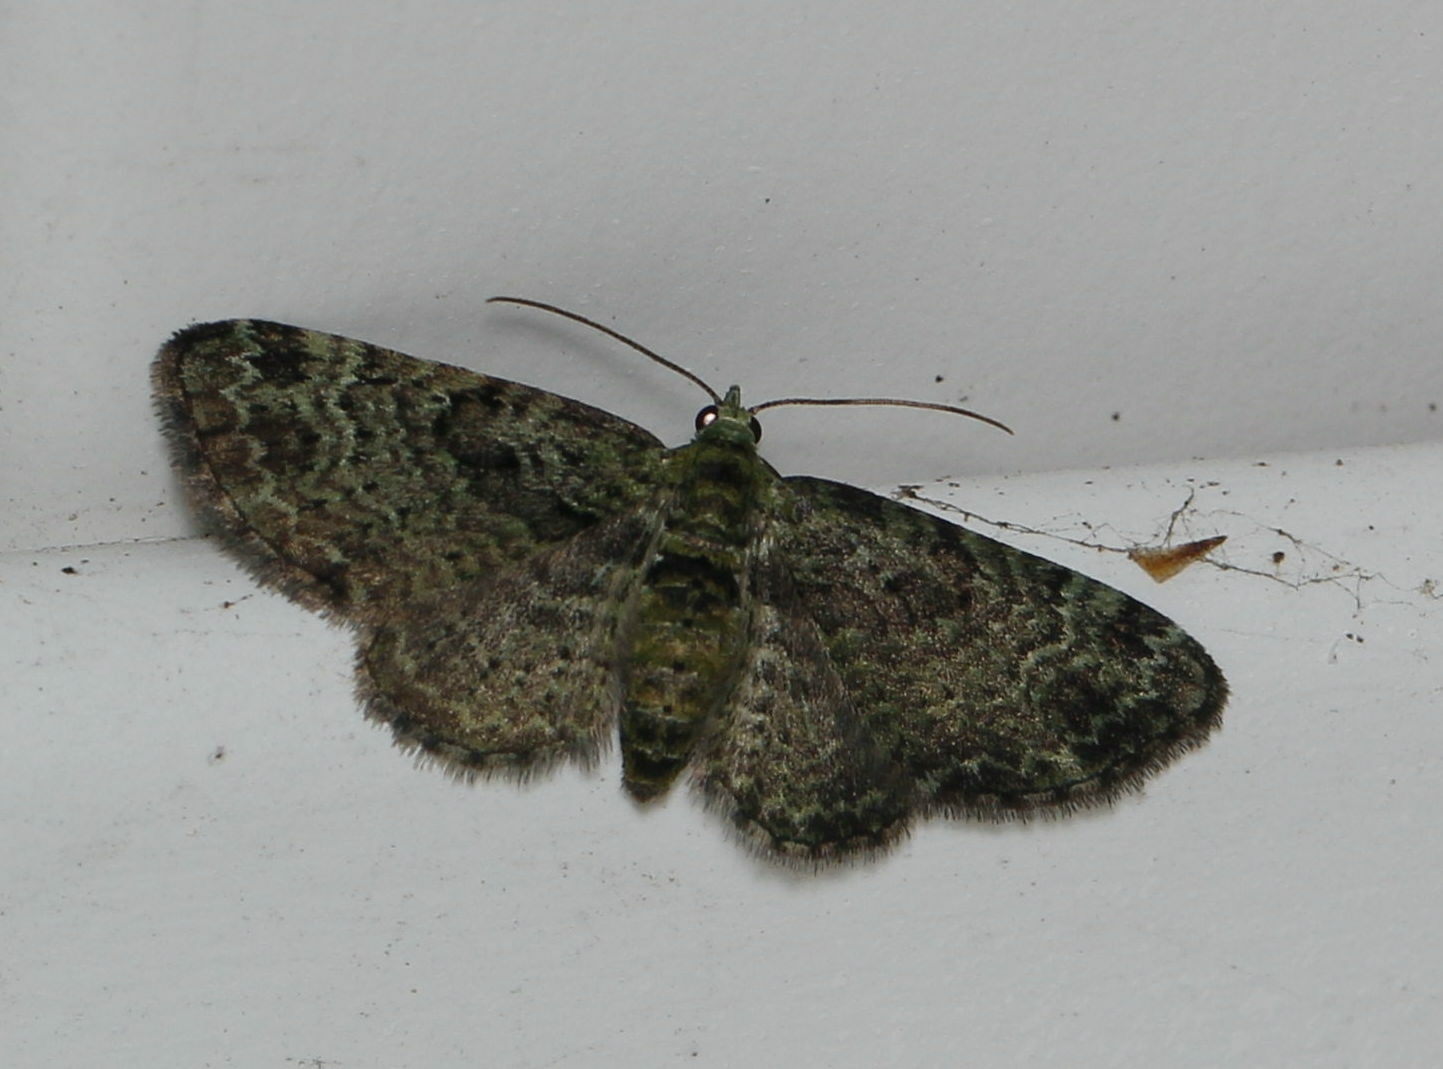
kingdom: Animalia
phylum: Arthropoda
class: Insecta
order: Lepidoptera
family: Geometridae
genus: Pasiphila
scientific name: Pasiphila rectangulata
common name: Green pug
